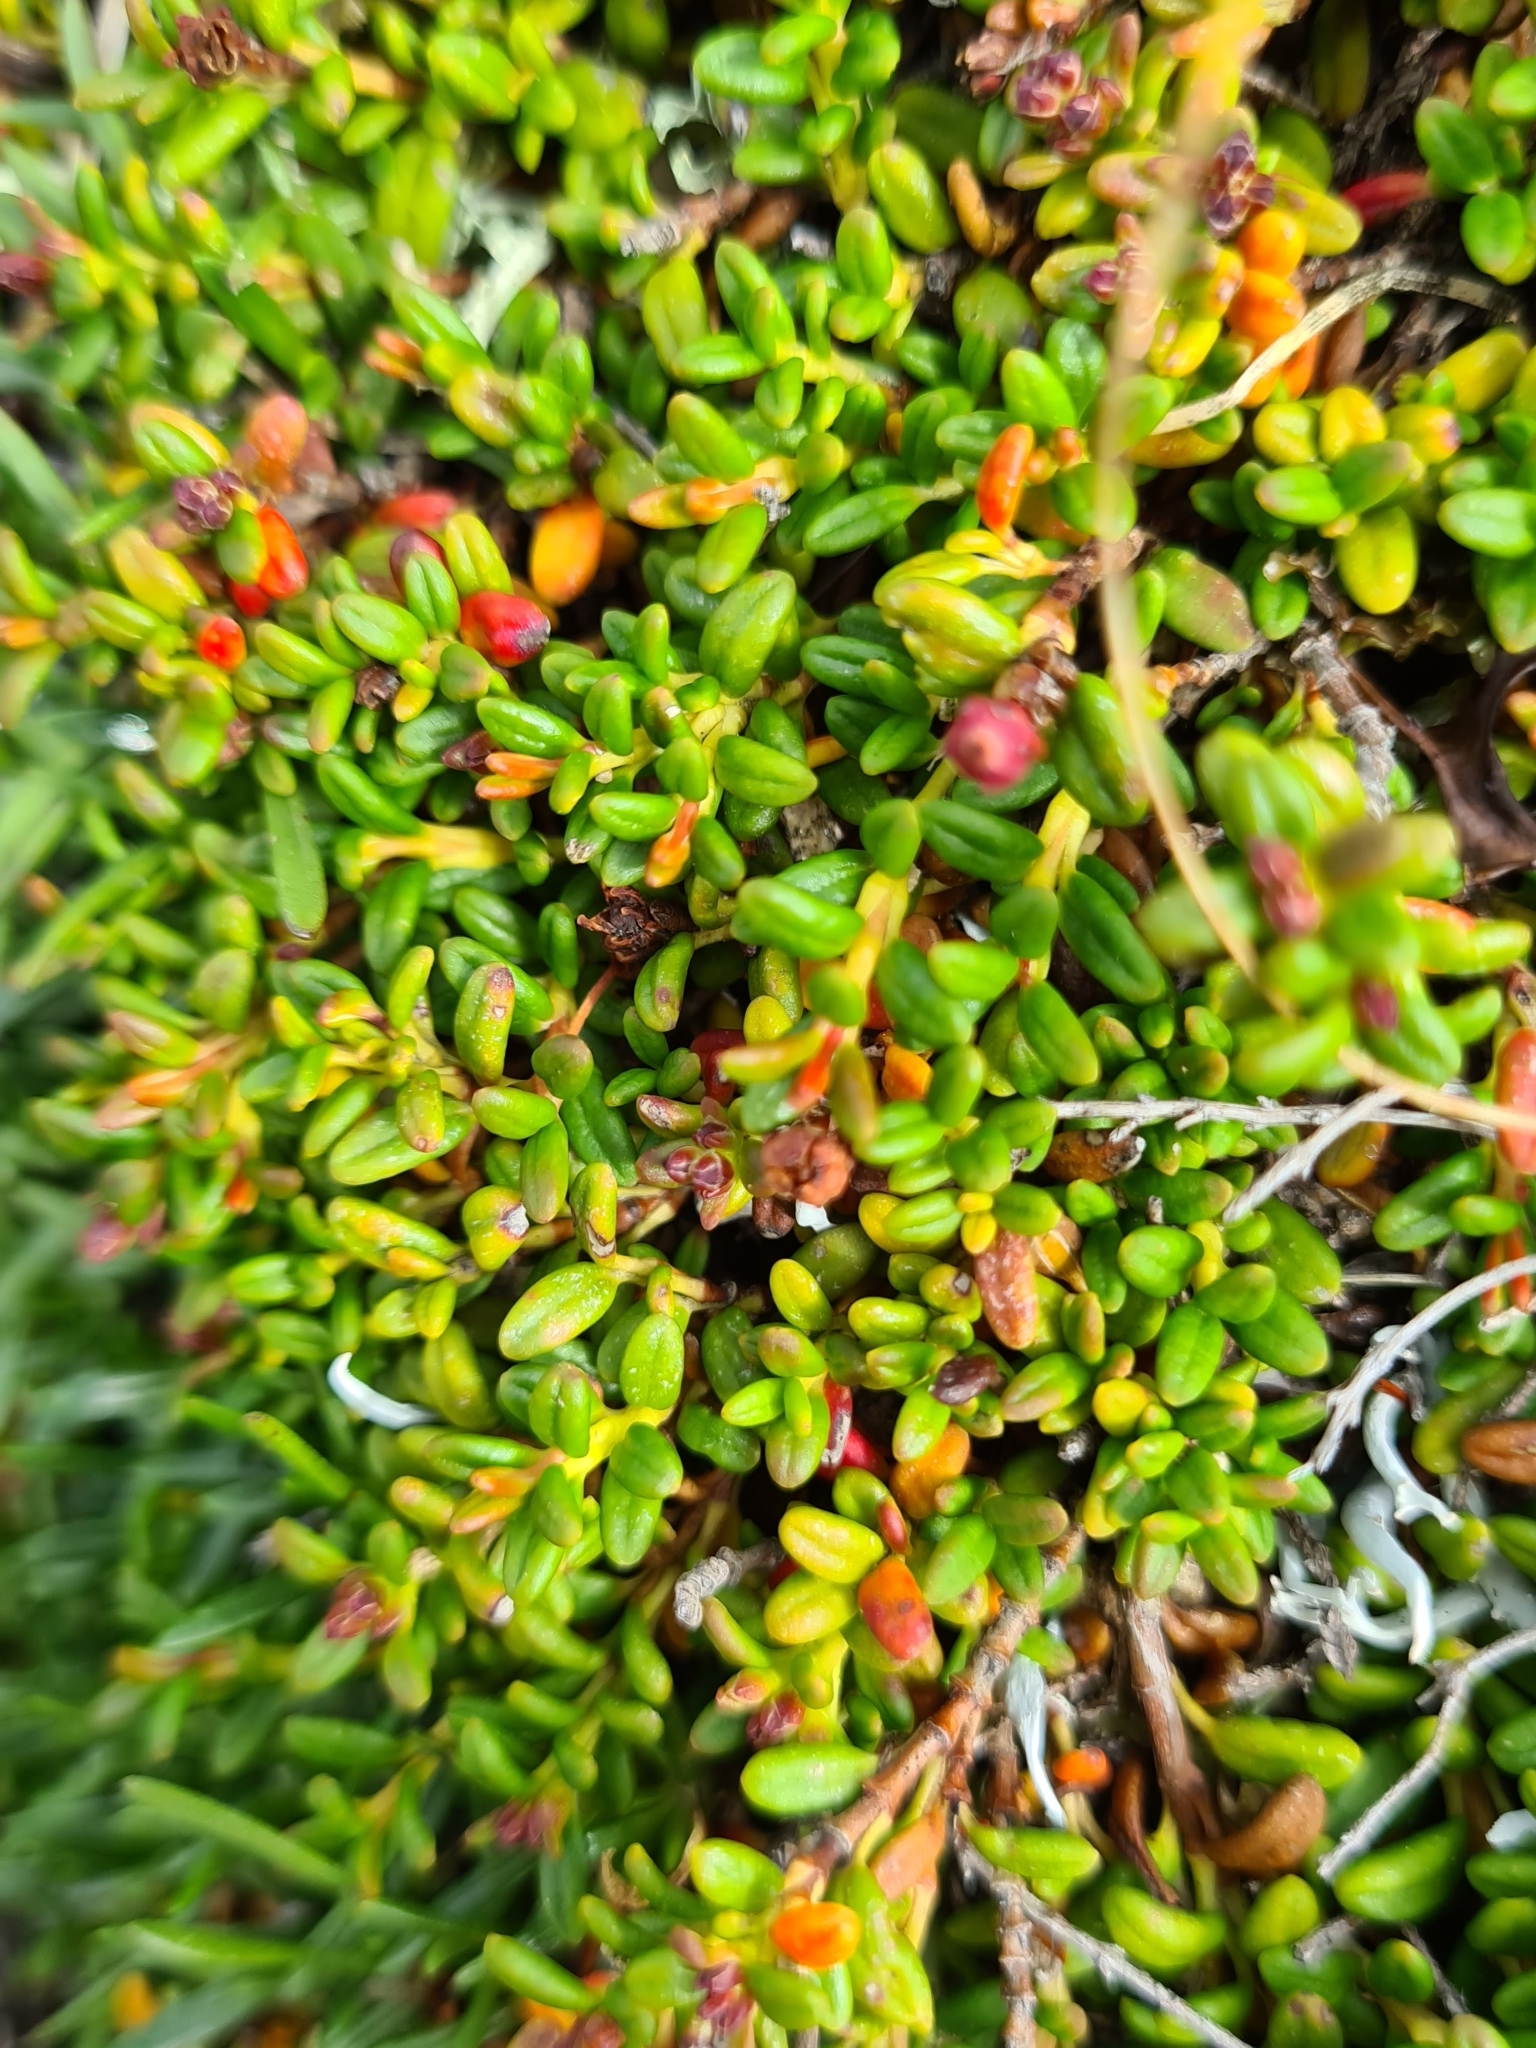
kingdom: Plantae
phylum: Tracheophyta
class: Magnoliopsida
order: Ericales
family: Ericaceae
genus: Kalmia
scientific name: Kalmia procumbens
